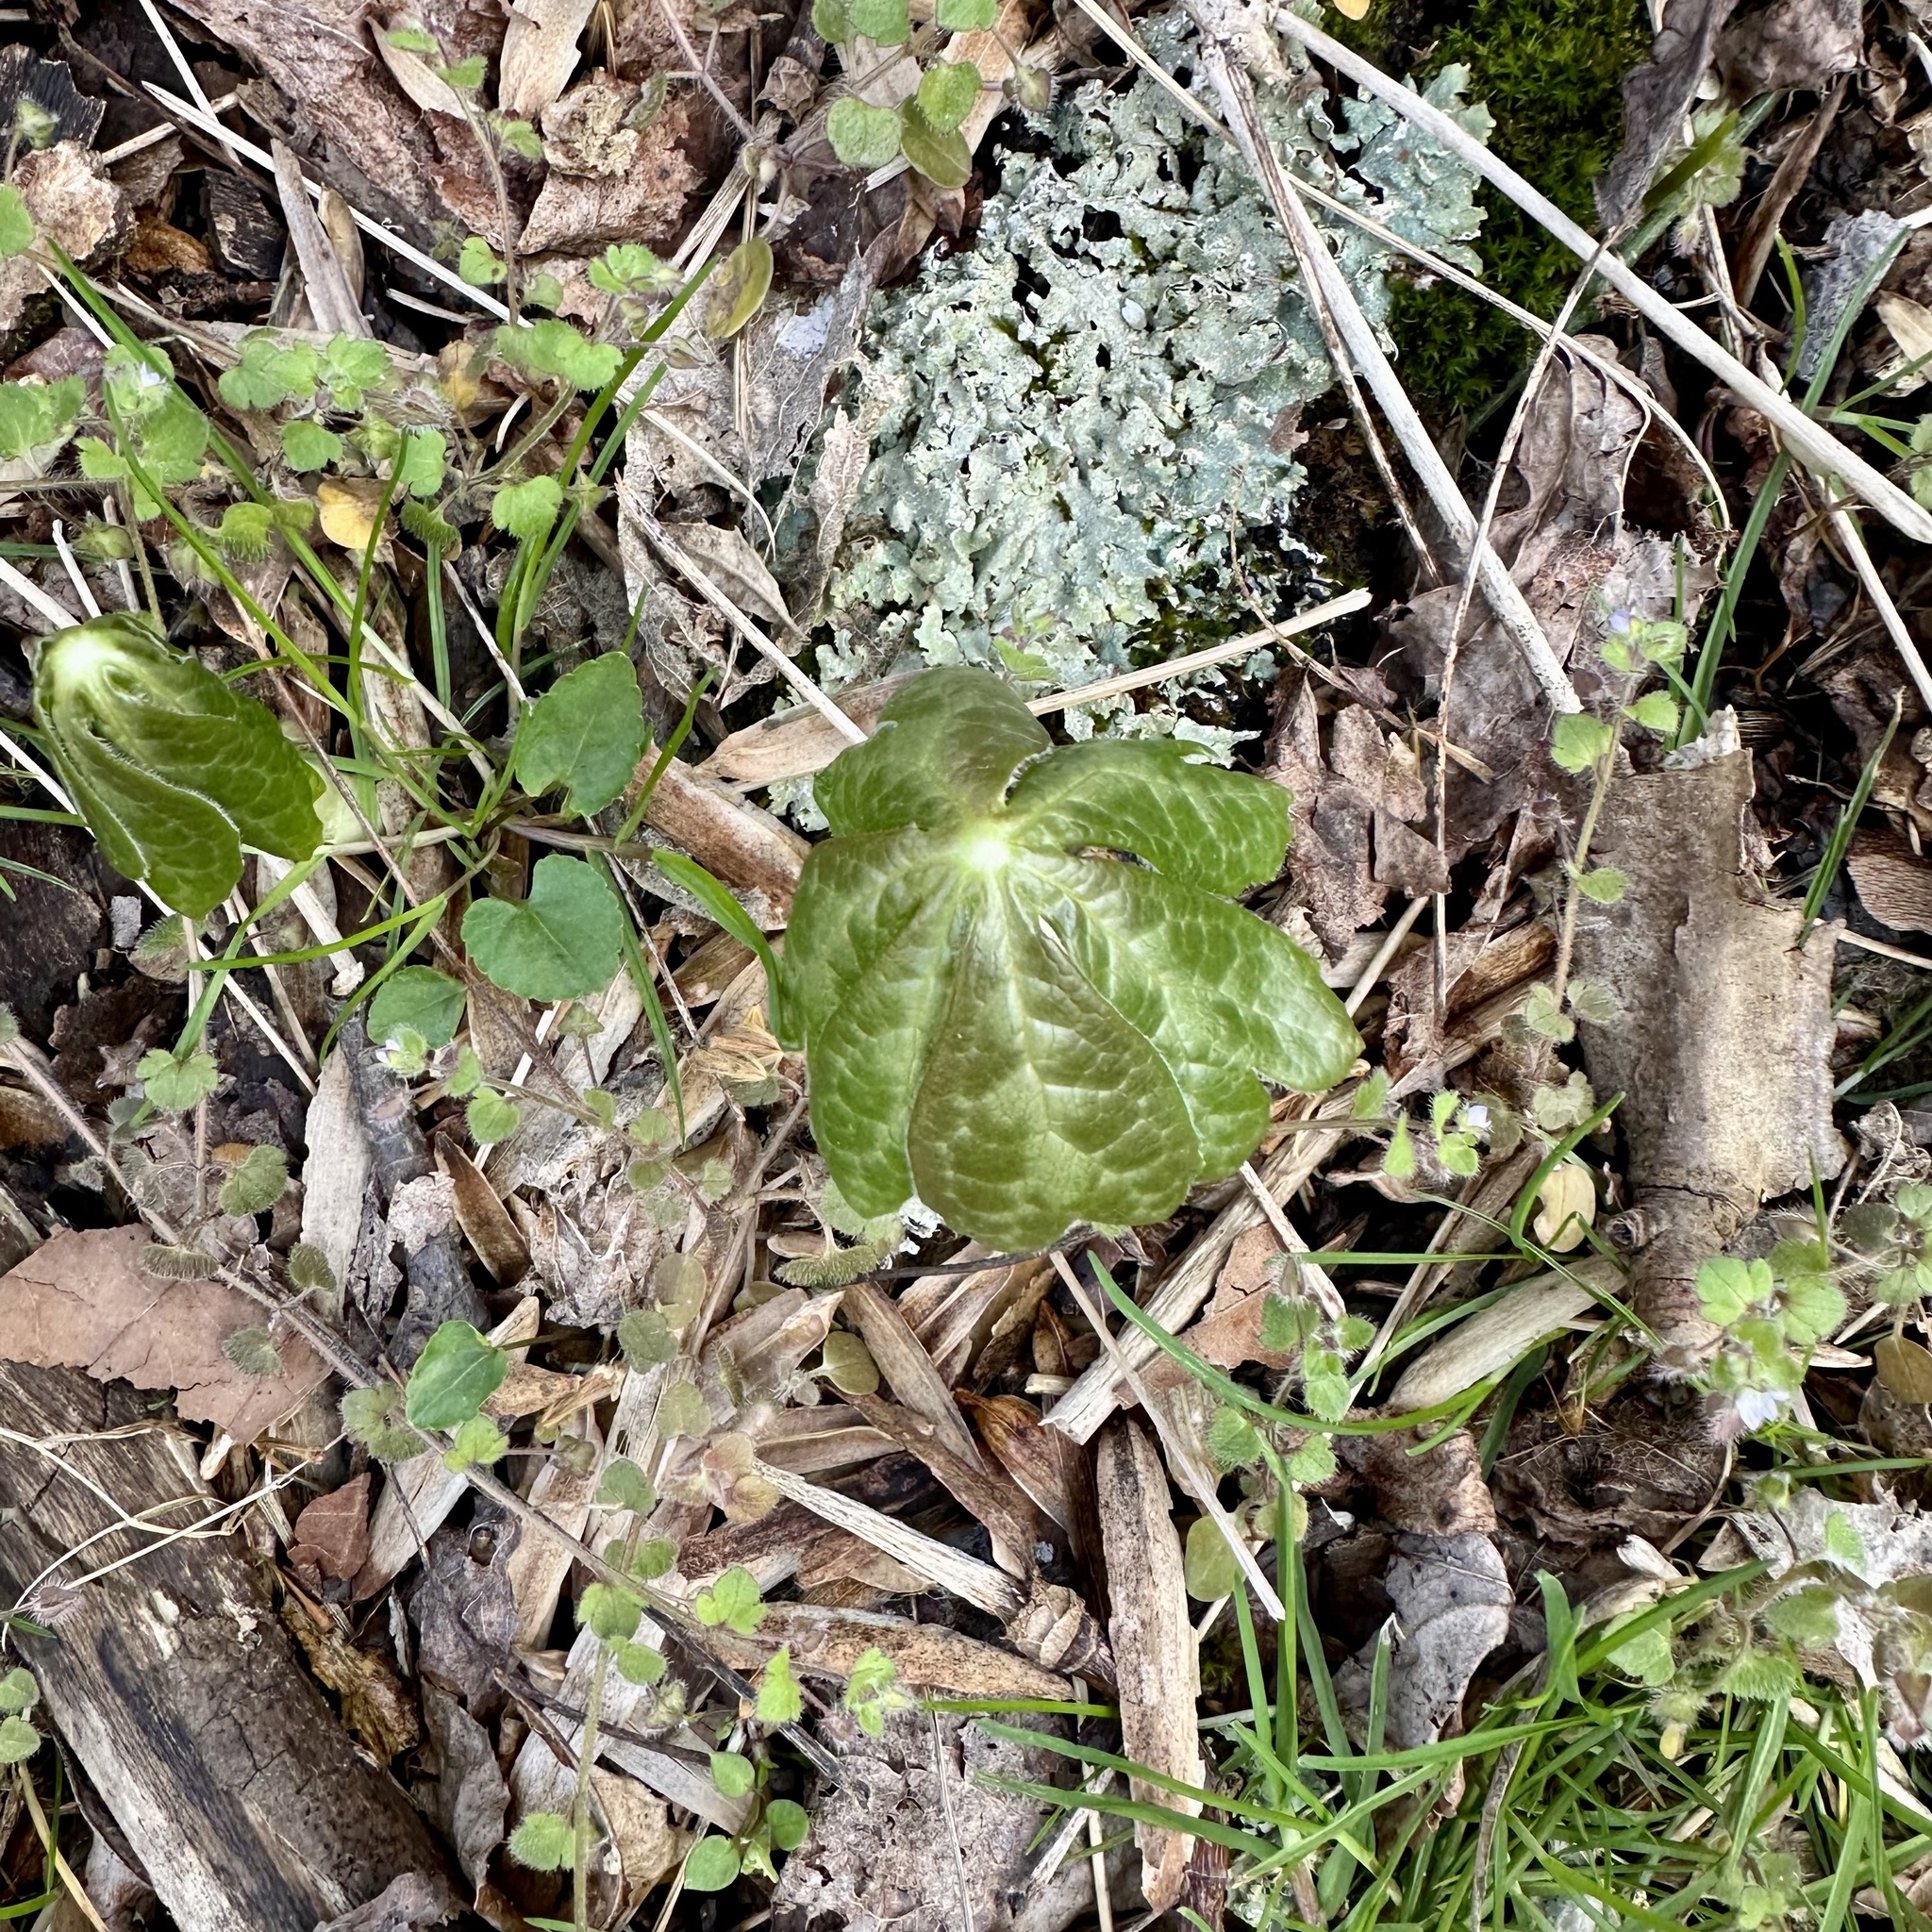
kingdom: Plantae
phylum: Tracheophyta
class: Magnoliopsida
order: Ranunculales
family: Berberidaceae
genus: Podophyllum
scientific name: Podophyllum peltatum
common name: Wild mandrake
